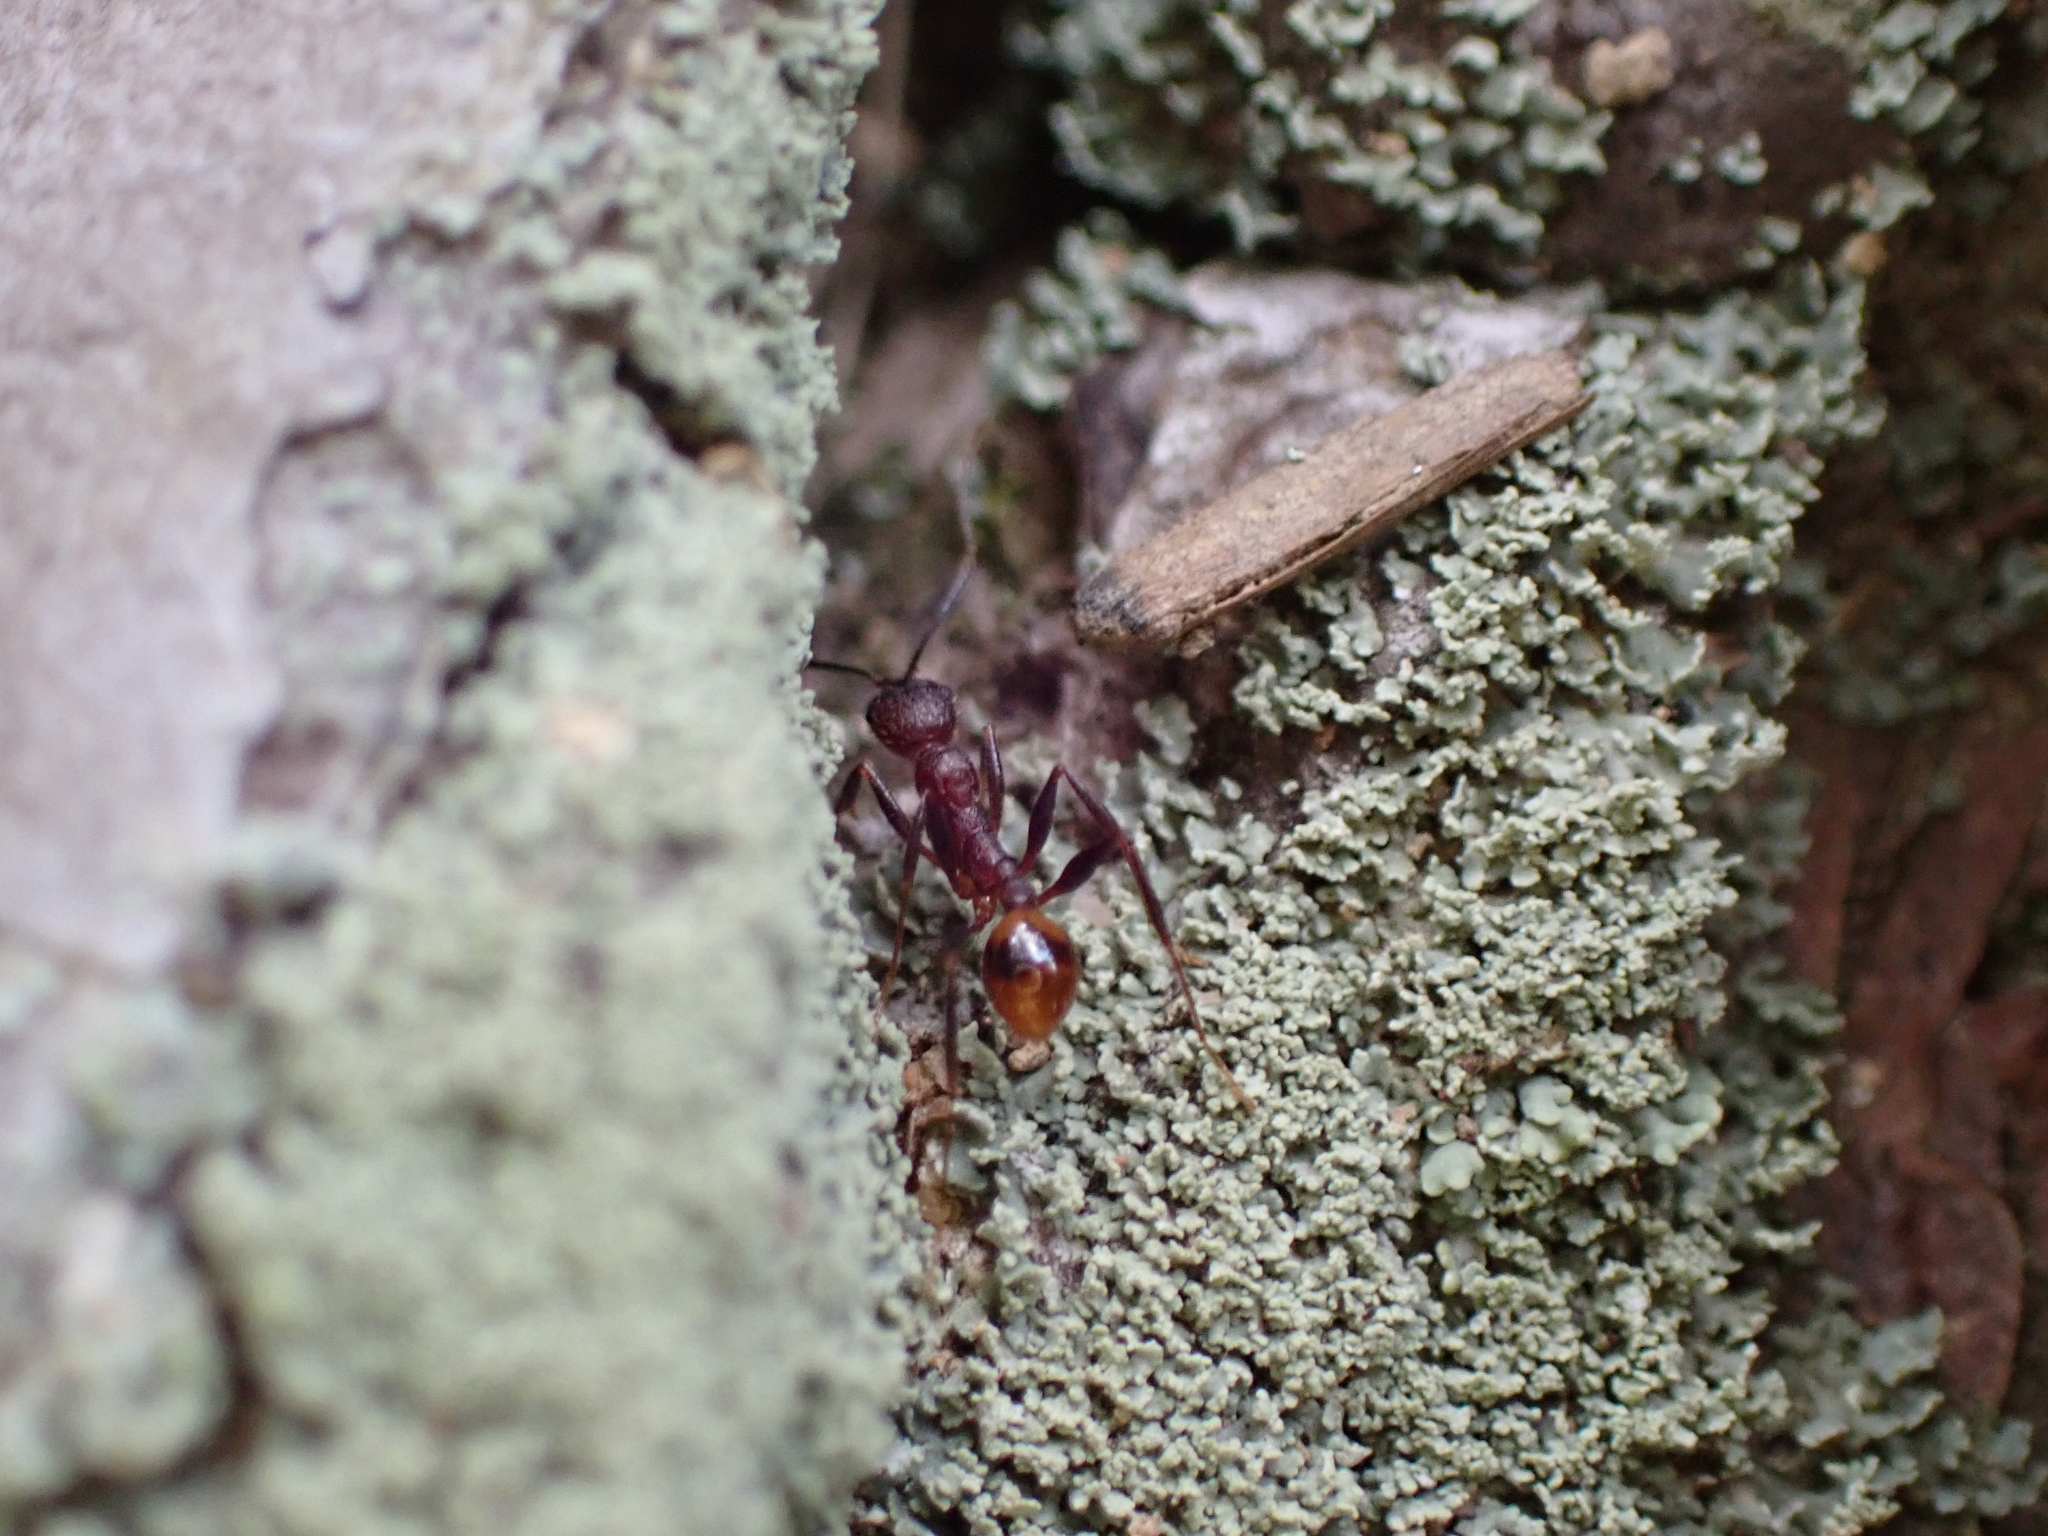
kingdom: Animalia
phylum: Arthropoda
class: Insecta
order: Hymenoptera
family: Formicidae
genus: Aphaenogaster
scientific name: Aphaenogaster lamellidens
